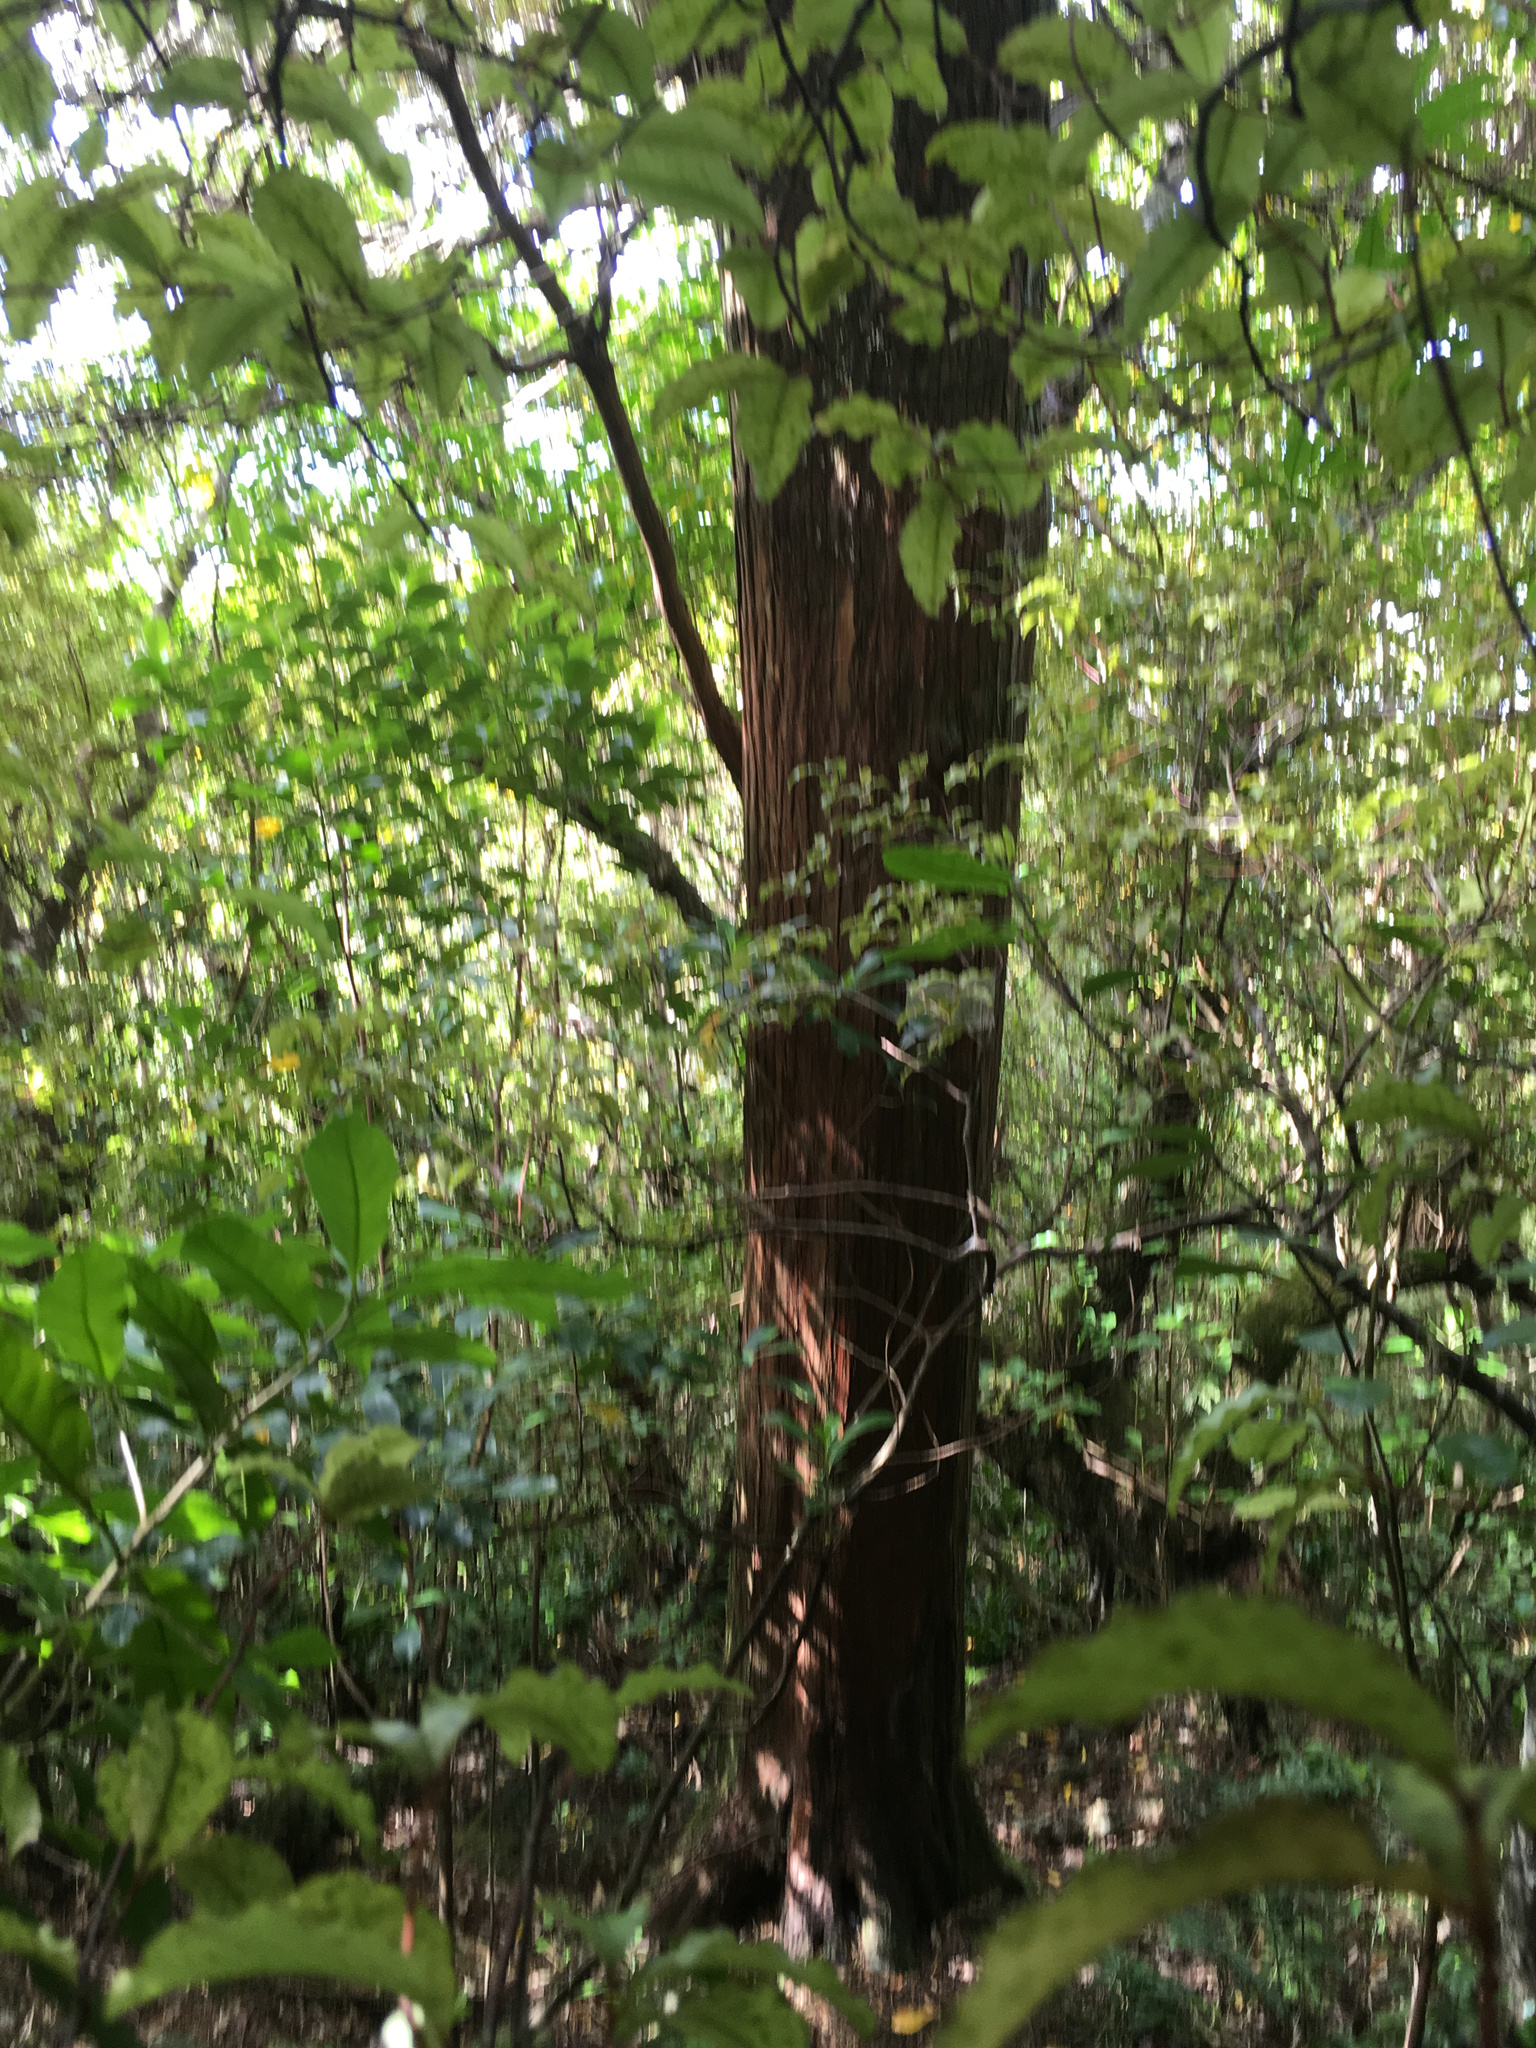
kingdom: Plantae
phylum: Tracheophyta
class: Pinopsida
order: Pinales
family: Podocarpaceae
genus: Podocarpus
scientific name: Podocarpus totara
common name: Totara
